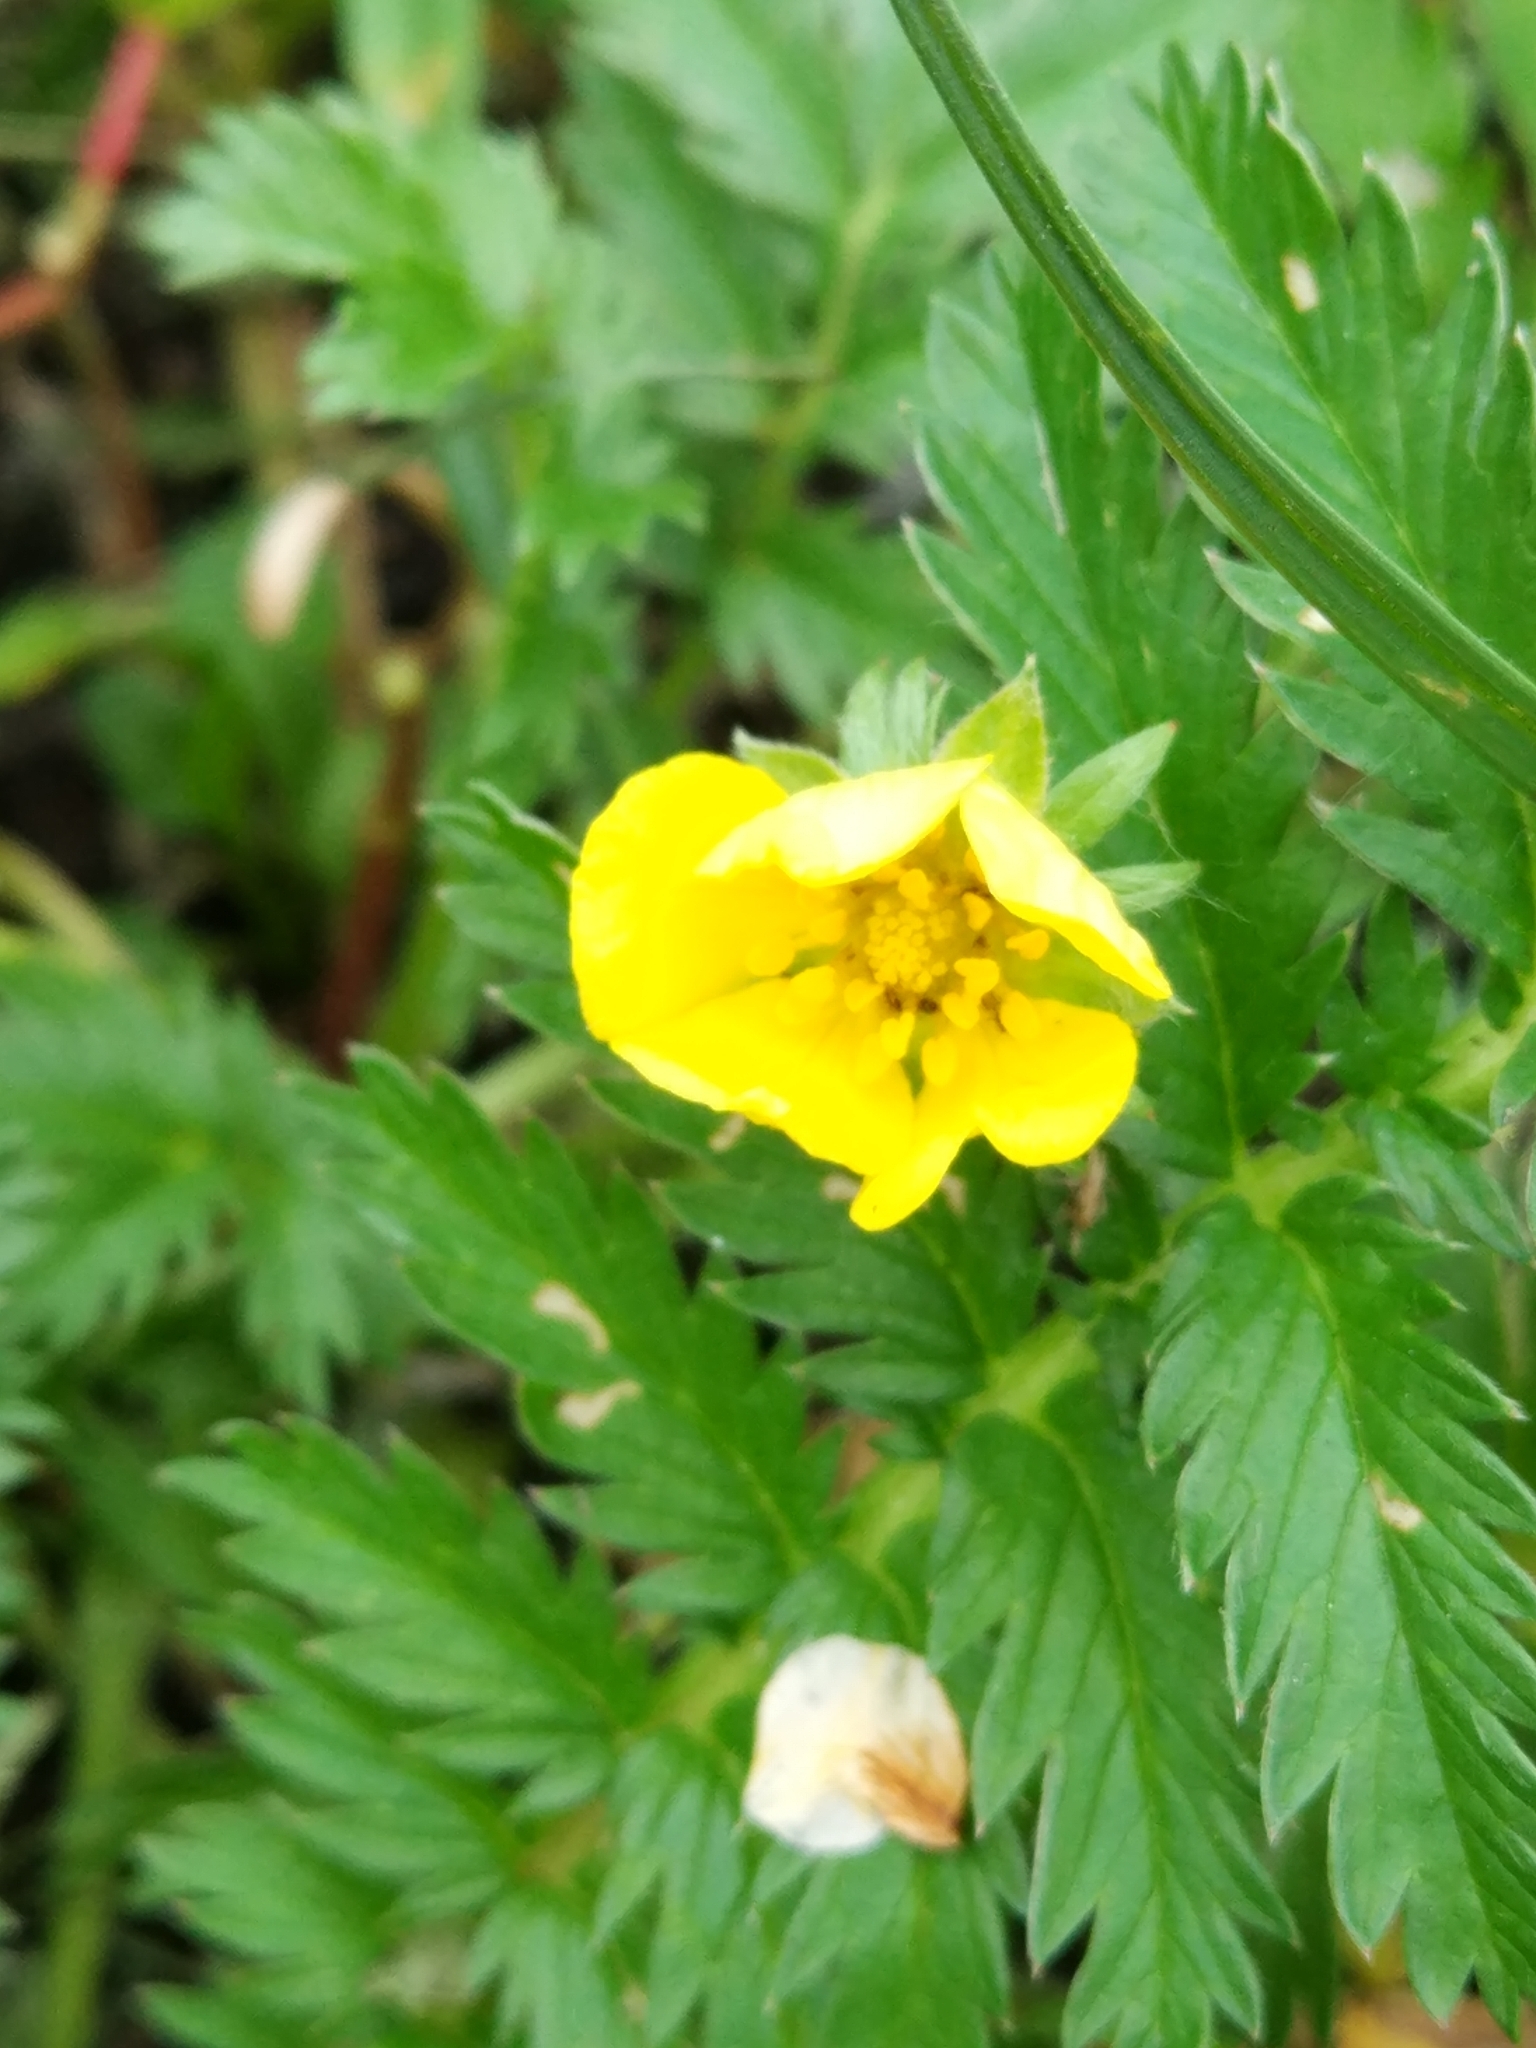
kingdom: Plantae
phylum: Tracheophyta
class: Magnoliopsida
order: Rosales
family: Rosaceae
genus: Argentina
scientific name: Argentina anserina
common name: Common silverweed
